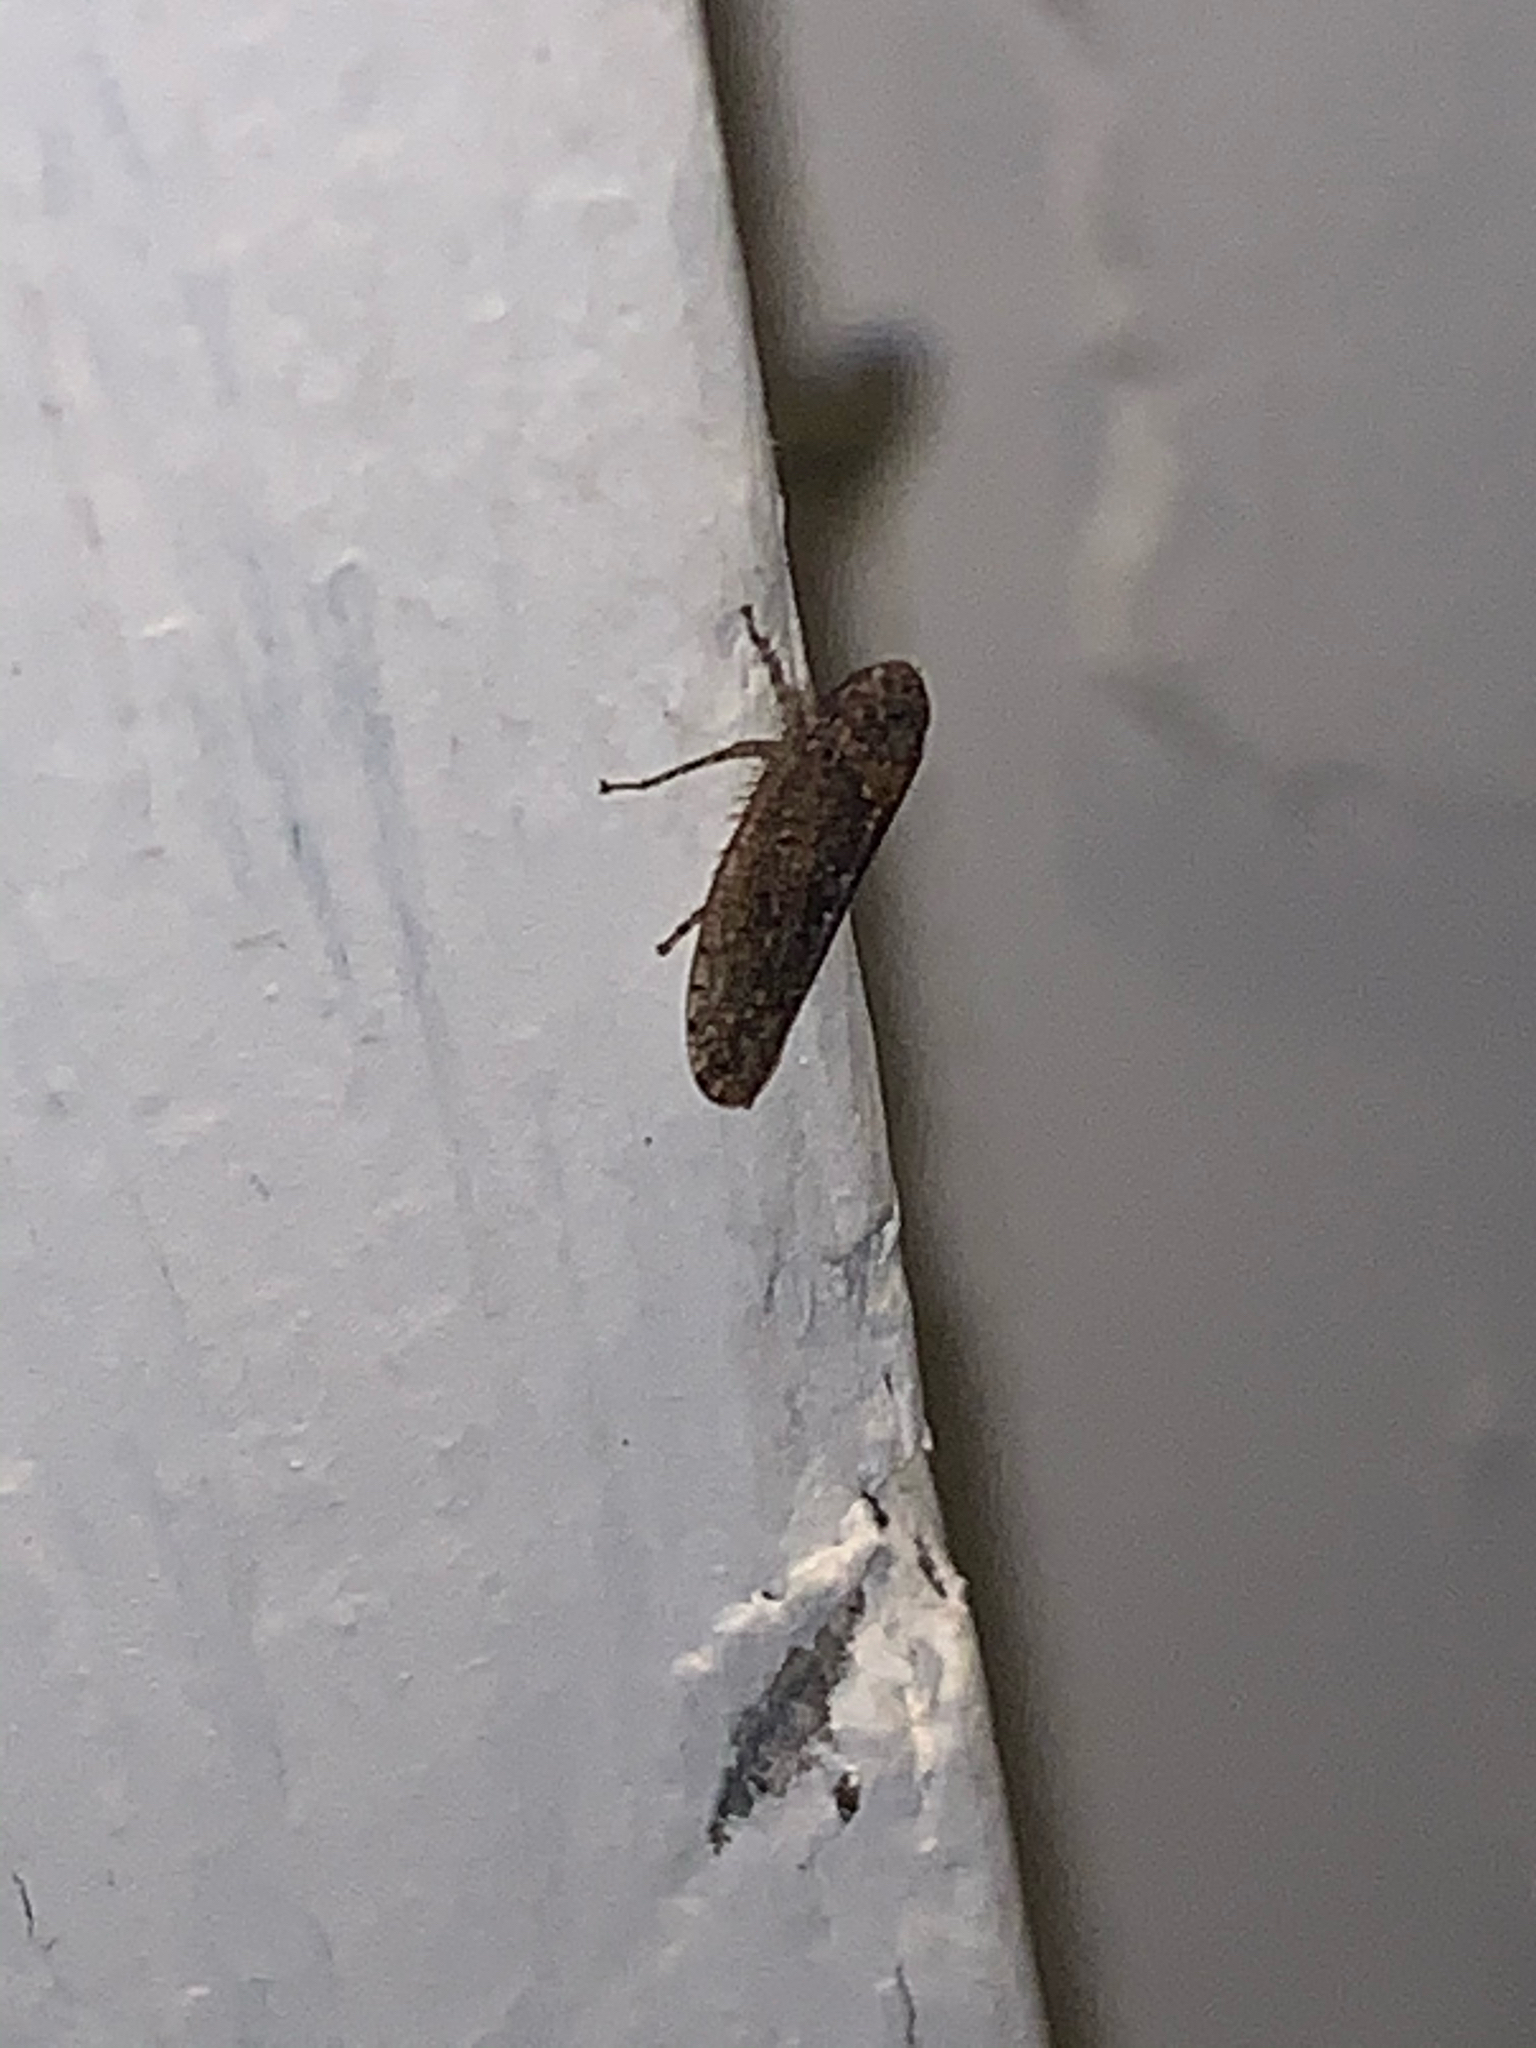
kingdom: Animalia
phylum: Arthropoda
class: Insecta
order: Hemiptera
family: Cicadellidae
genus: Paraphlepsius
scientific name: Paraphlepsius
